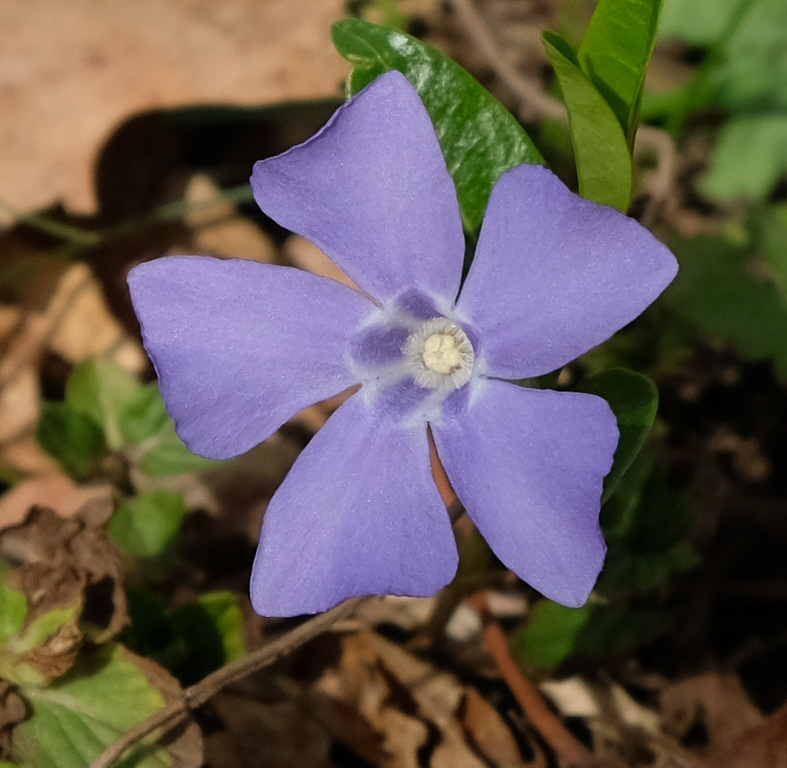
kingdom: Plantae
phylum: Tracheophyta
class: Magnoliopsida
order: Gentianales
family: Apocynaceae
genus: Vinca
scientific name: Vinca minor
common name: Lesser periwinkle
